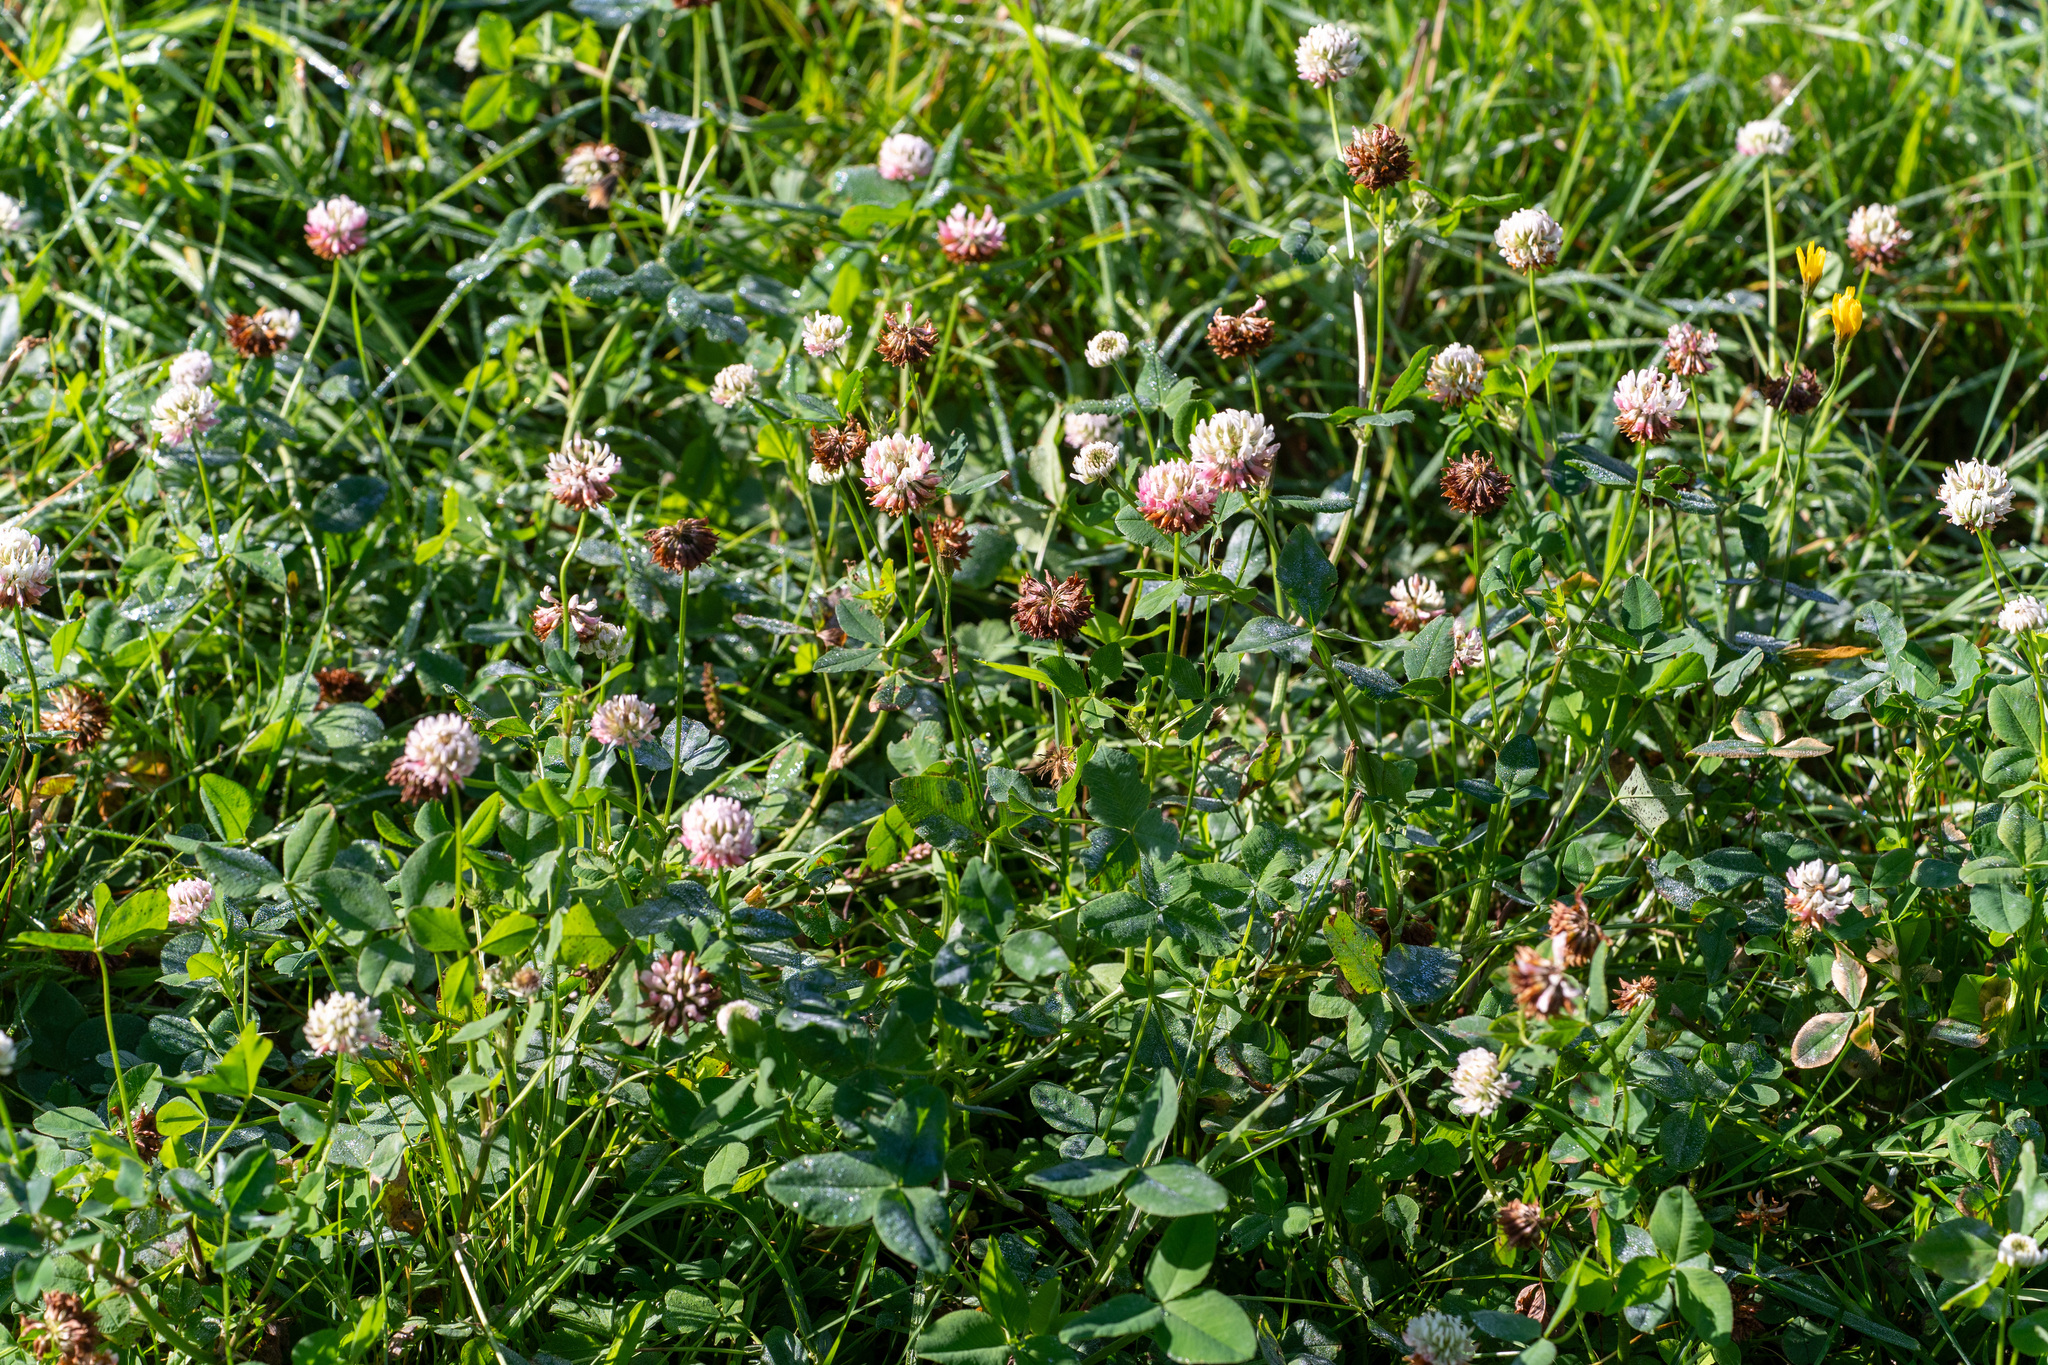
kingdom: Plantae
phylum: Tracheophyta
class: Magnoliopsida
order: Fabales
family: Fabaceae
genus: Trifolium
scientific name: Trifolium hybridum
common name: Alsike clover
